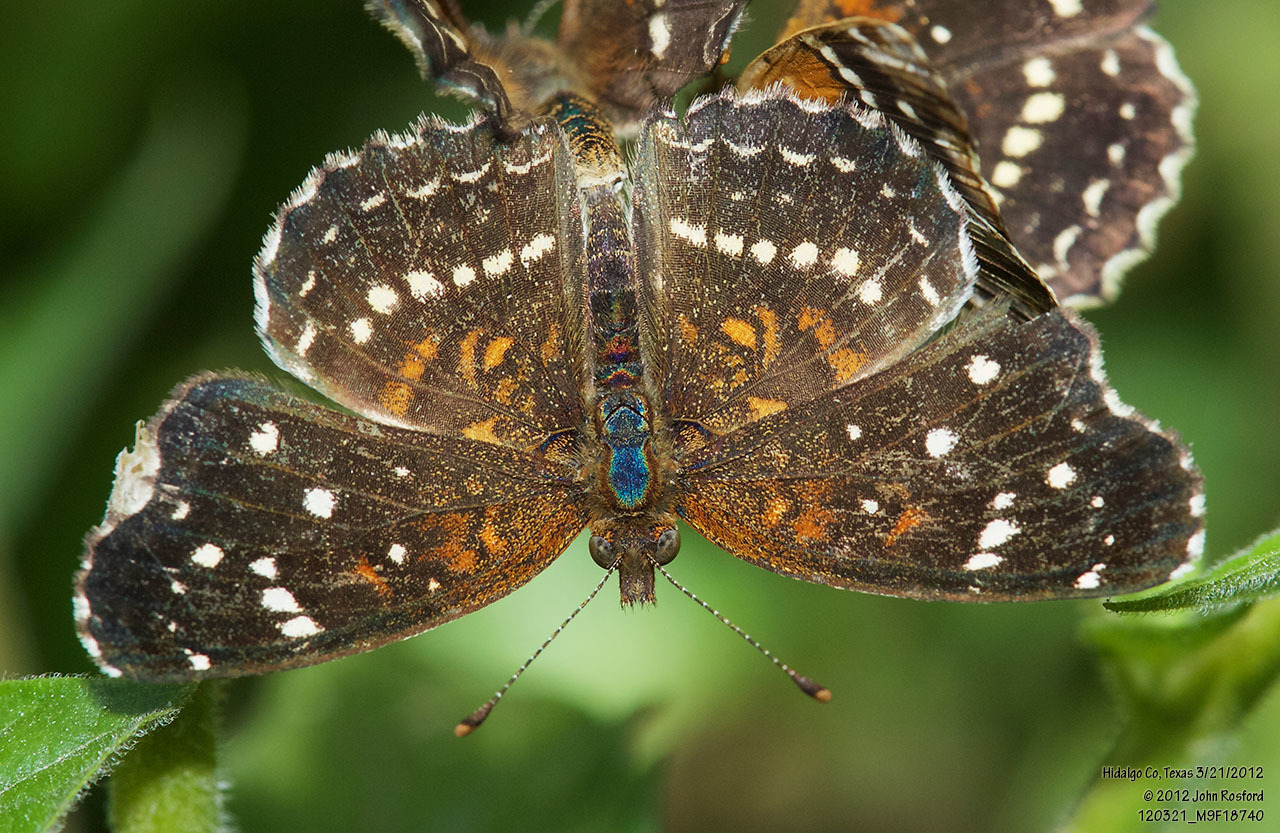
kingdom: Animalia
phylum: Arthropoda
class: Insecta
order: Lepidoptera
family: Nymphalidae
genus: Anthanassa
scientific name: Anthanassa texana
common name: Texan crescent
